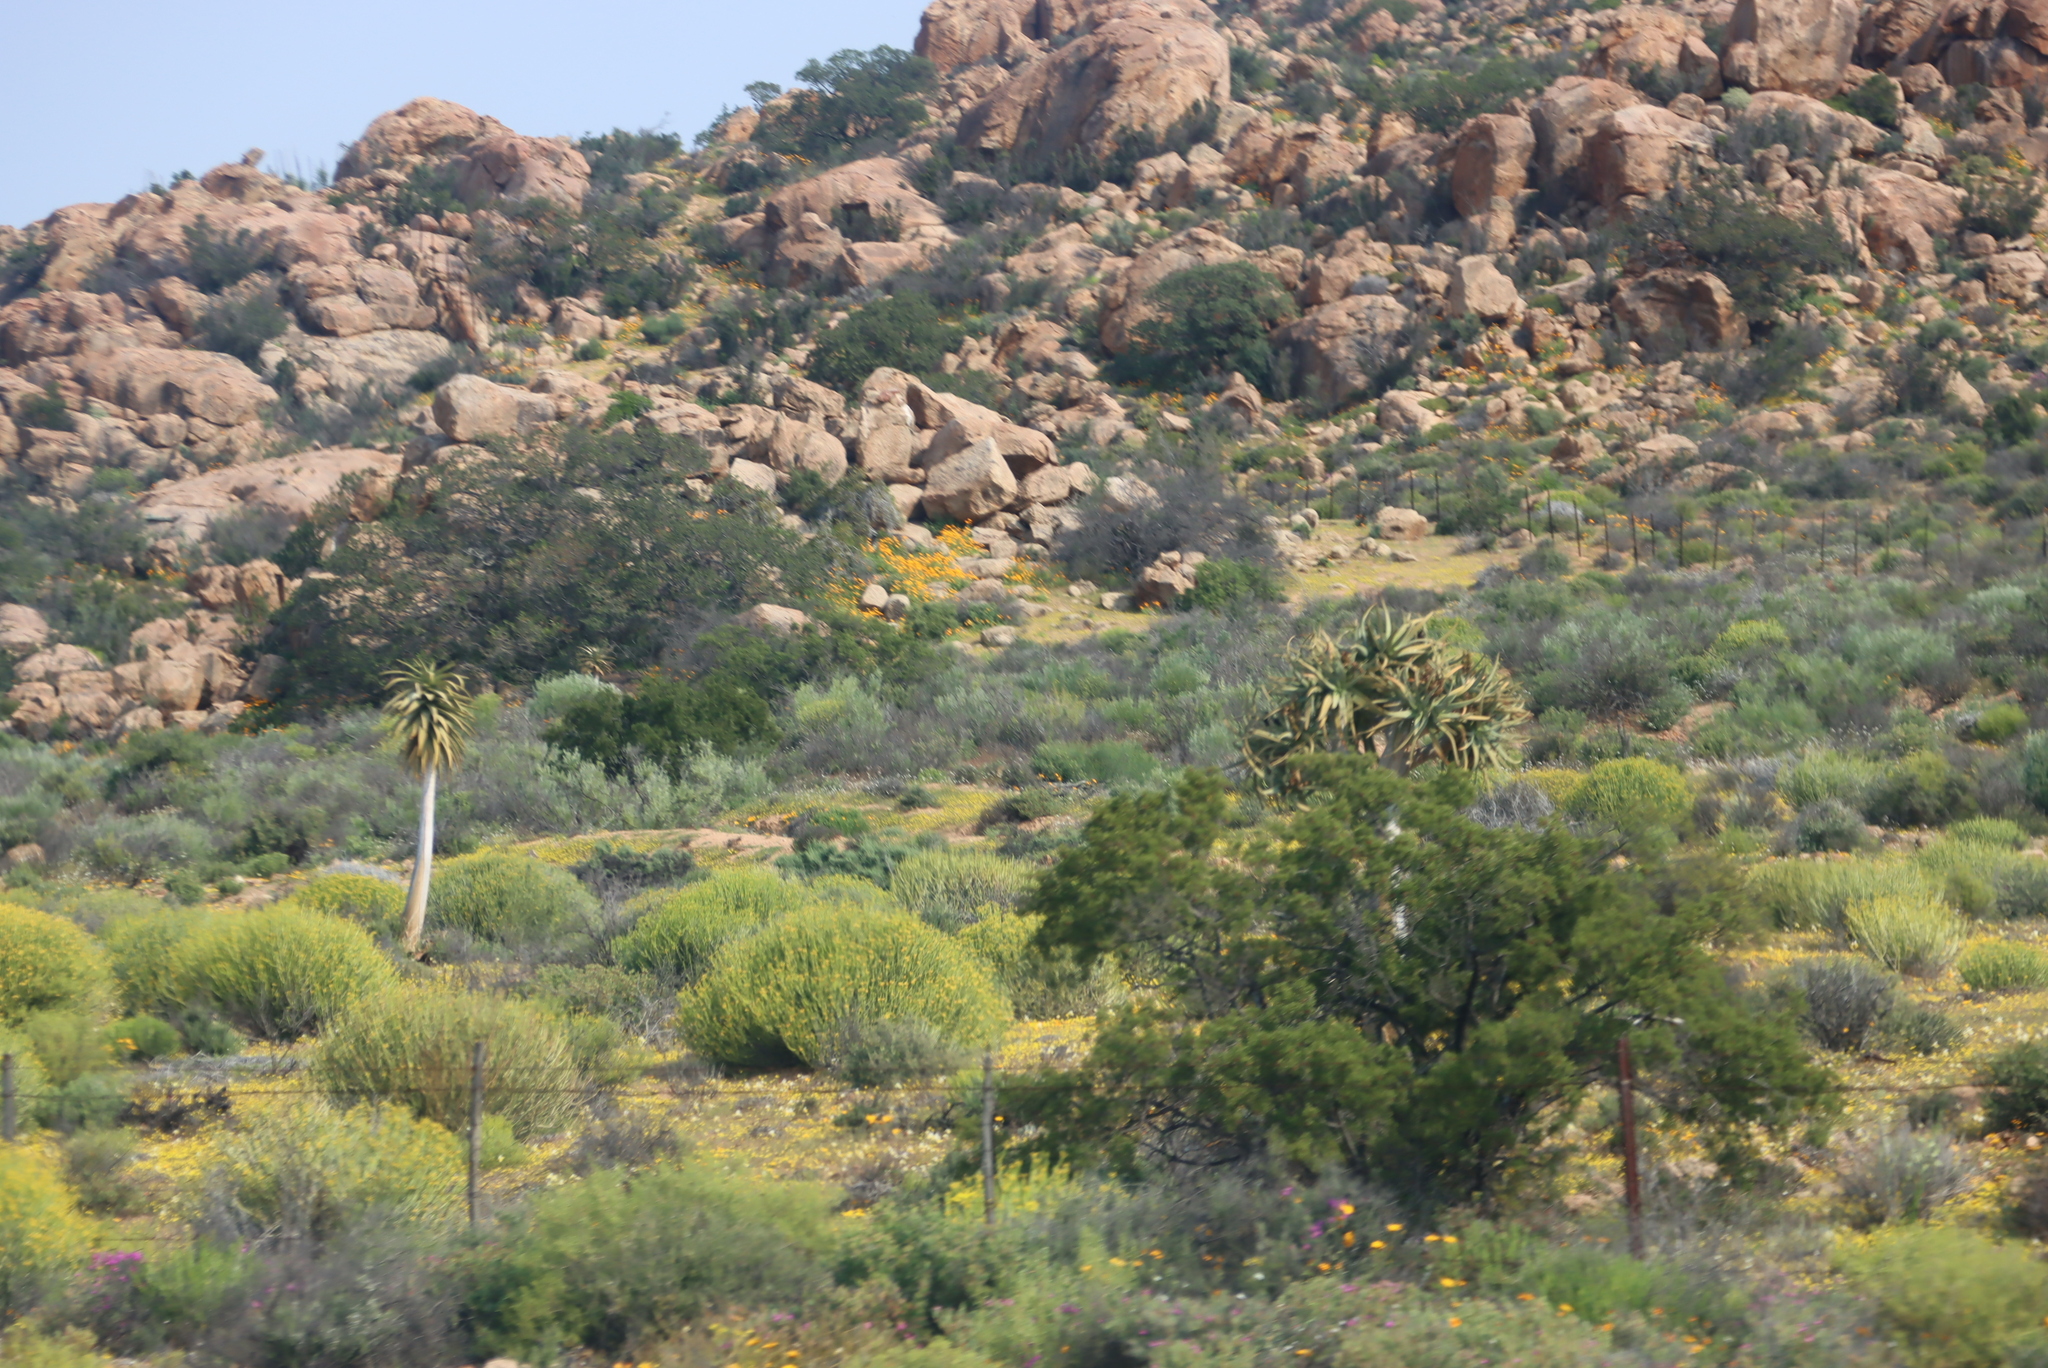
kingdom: Plantae
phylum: Tracheophyta
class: Liliopsida
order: Asparagales
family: Asphodelaceae
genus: Aloidendron
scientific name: Aloidendron dichotomum
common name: Quiver tree
